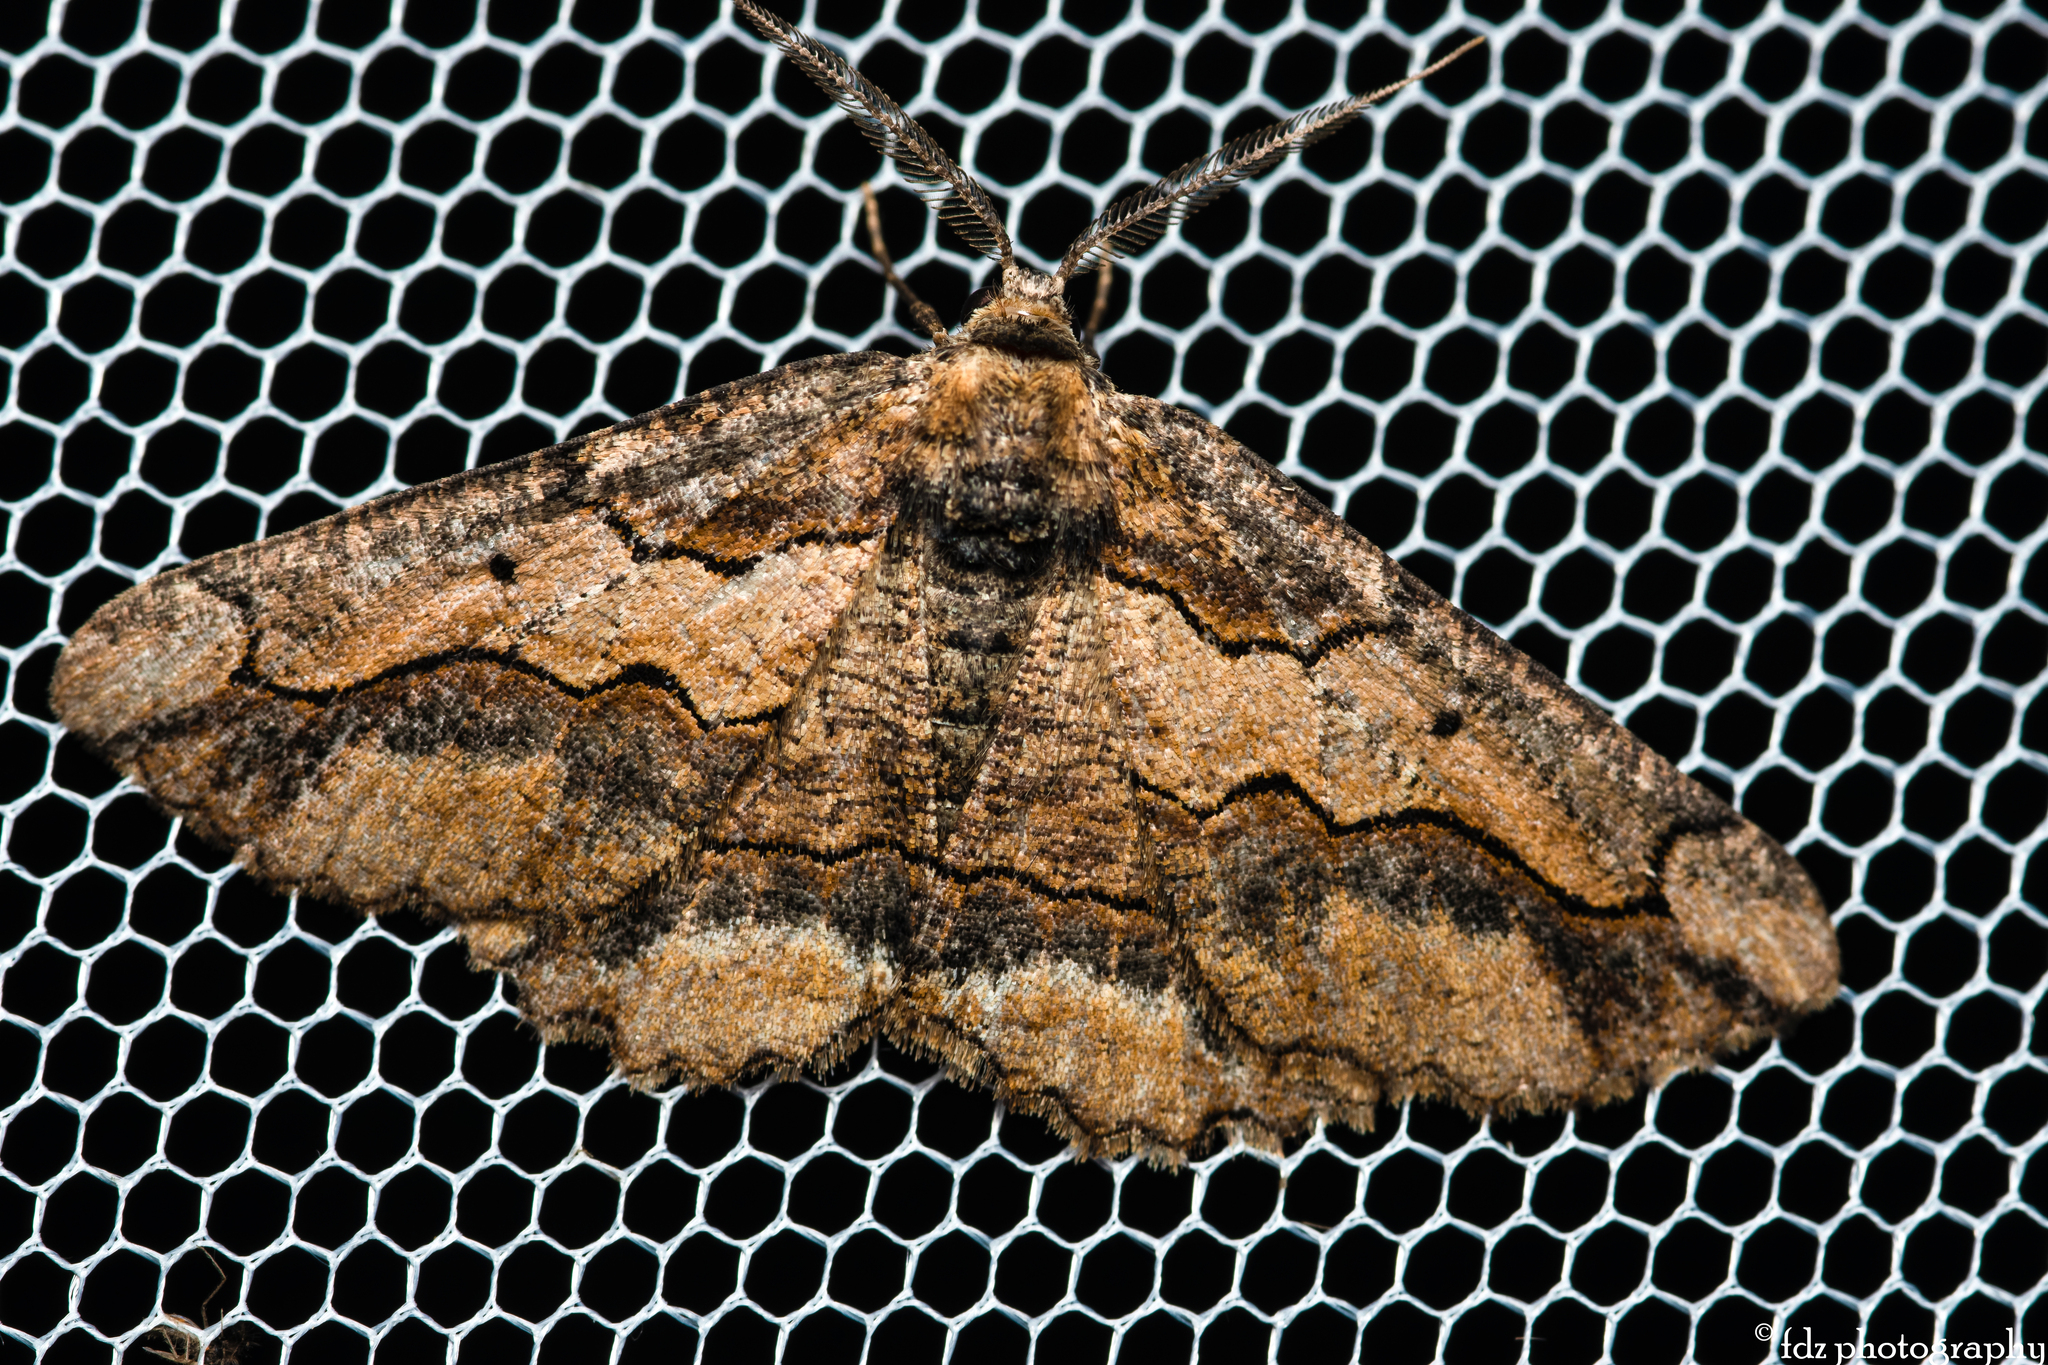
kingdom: Animalia
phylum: Arthropoda
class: Insecta
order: Lepidoptera
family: Geometridae
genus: Menophra
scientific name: Menophra japygiaria
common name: Brassy waved umber
